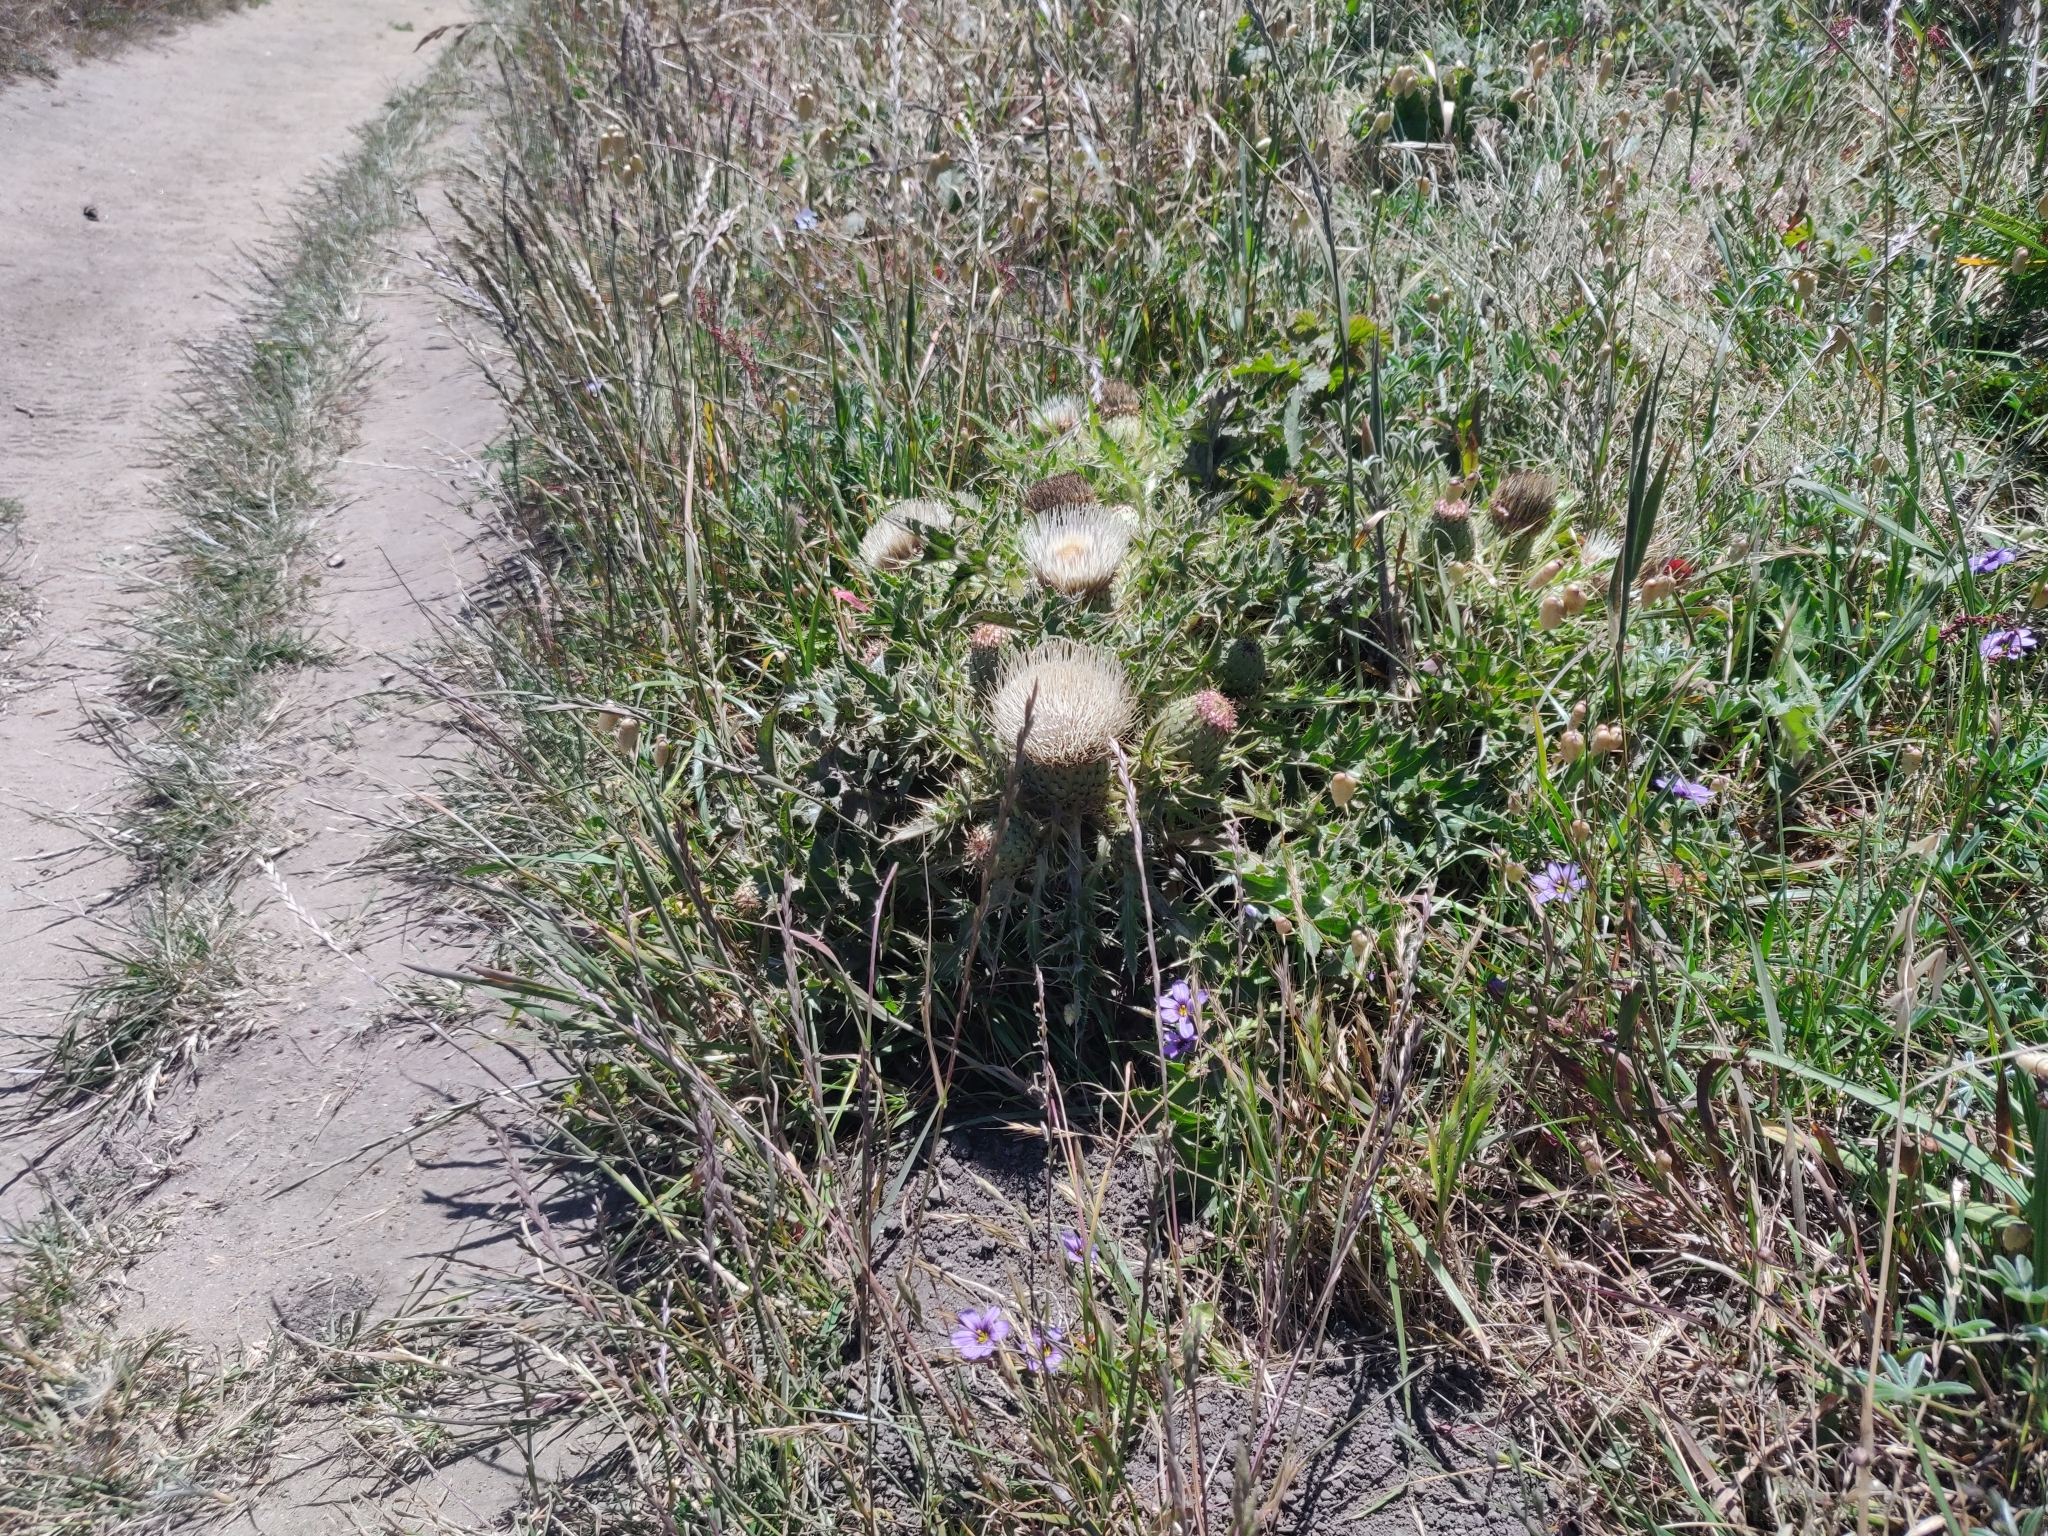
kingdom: Plantae
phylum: Tracheophyta
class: Magnoliopsida
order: Asterales
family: Asteraceae
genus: Cirsium
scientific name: Cirsium quercetorum
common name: Alameda county thistle
